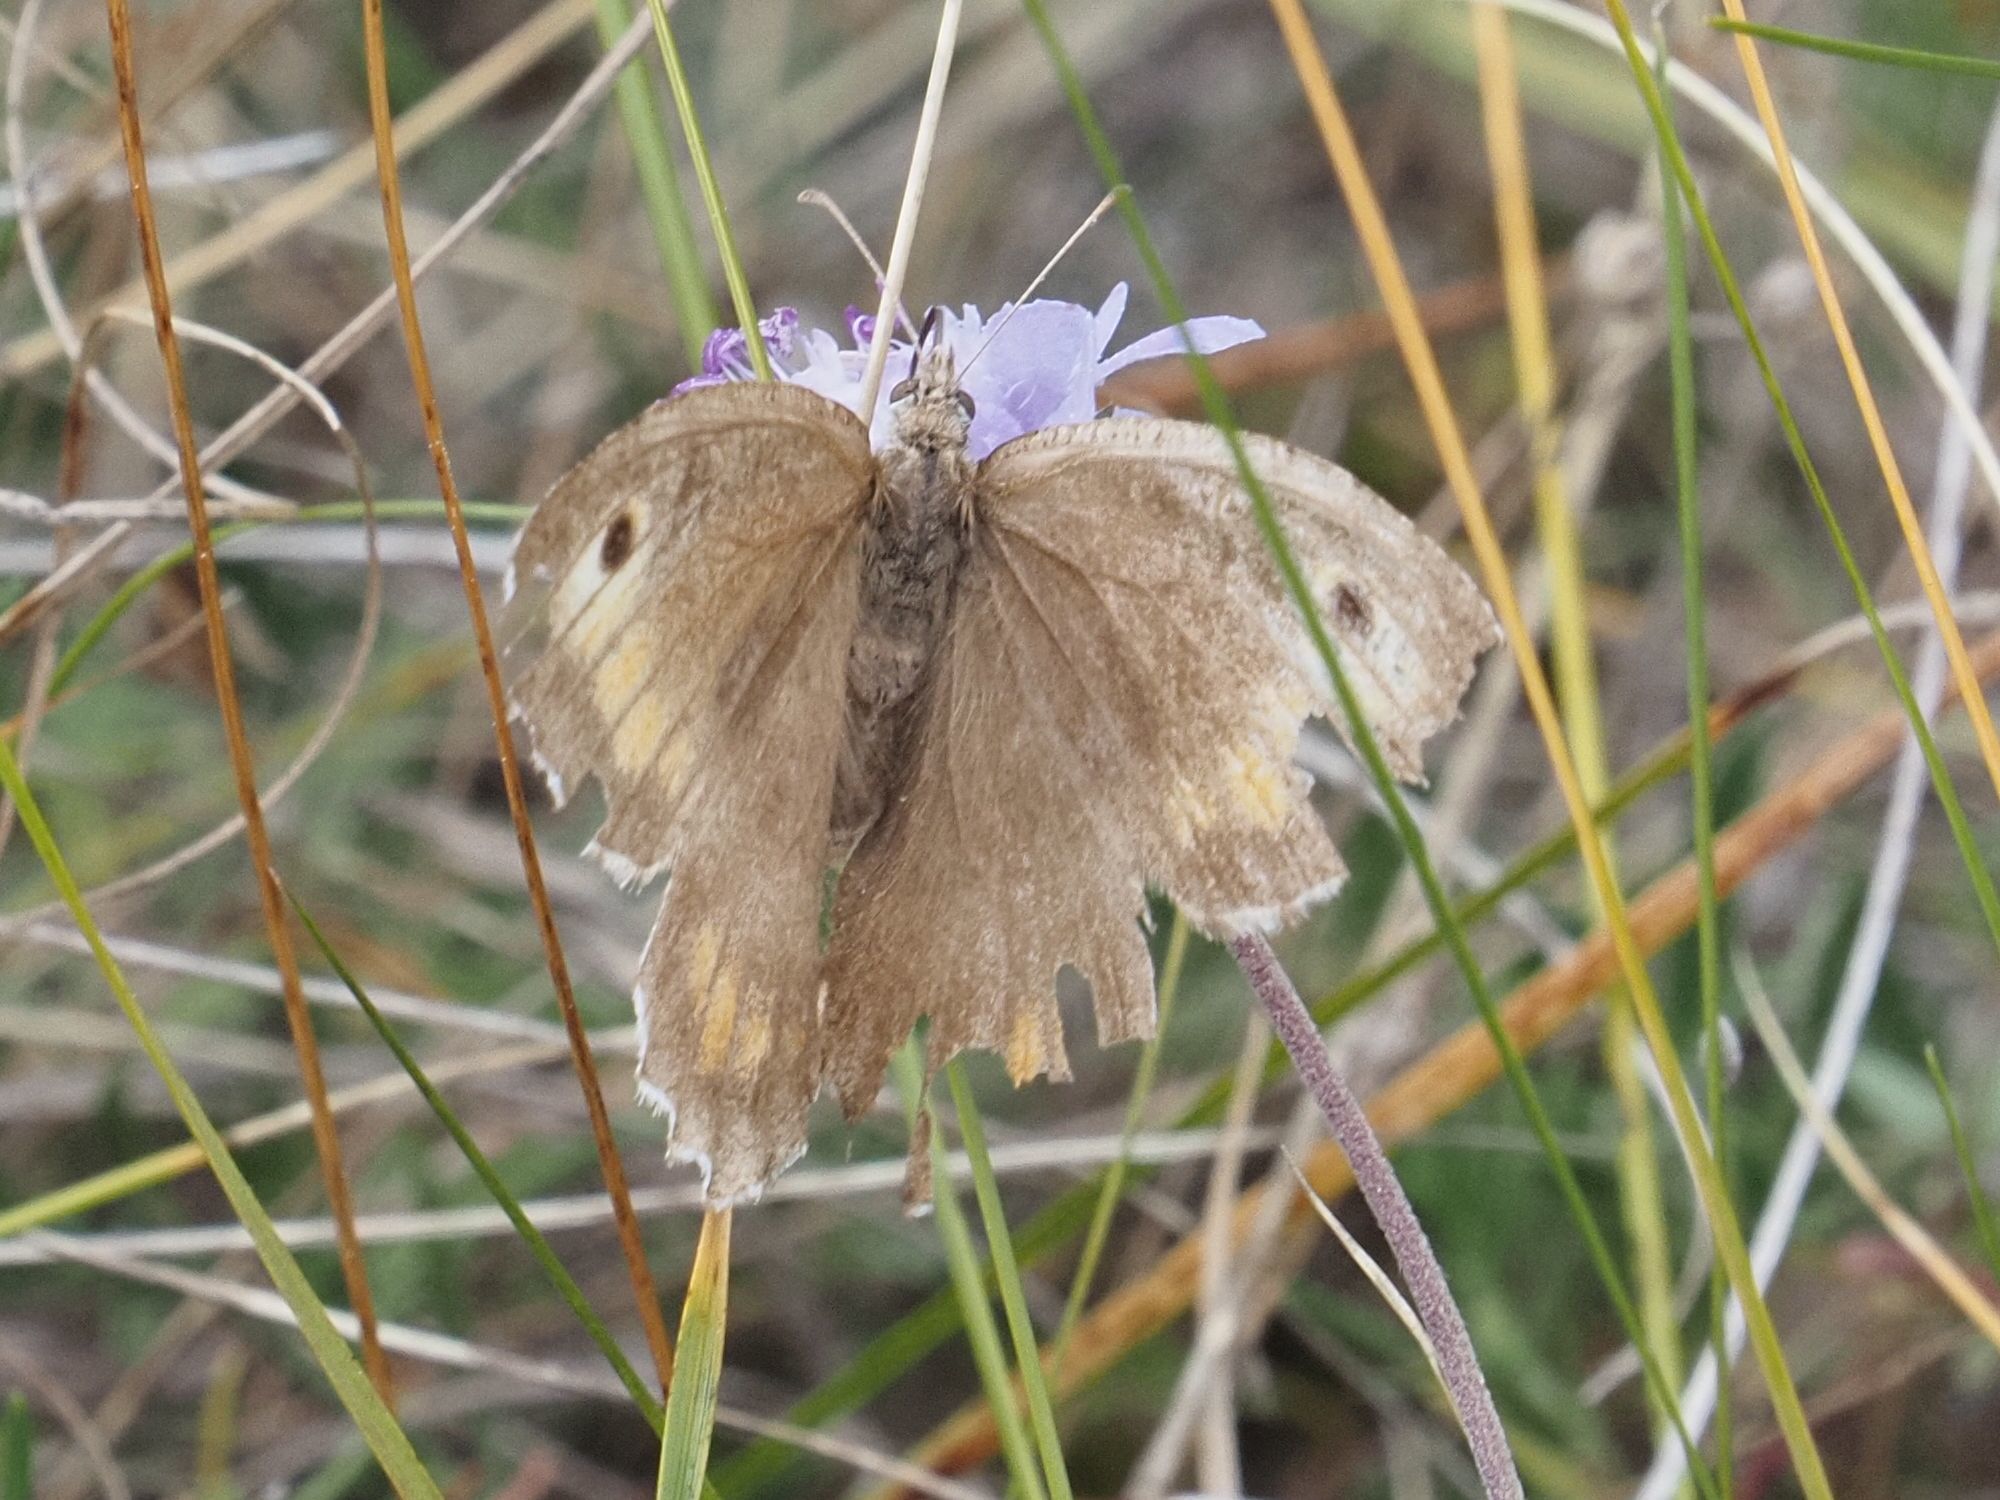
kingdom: Animalia
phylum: Arthropoda
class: Insecta
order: Lepidoptera
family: Nymphalidae
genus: Arethusana
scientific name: Arethusana arethusa
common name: False grayling
